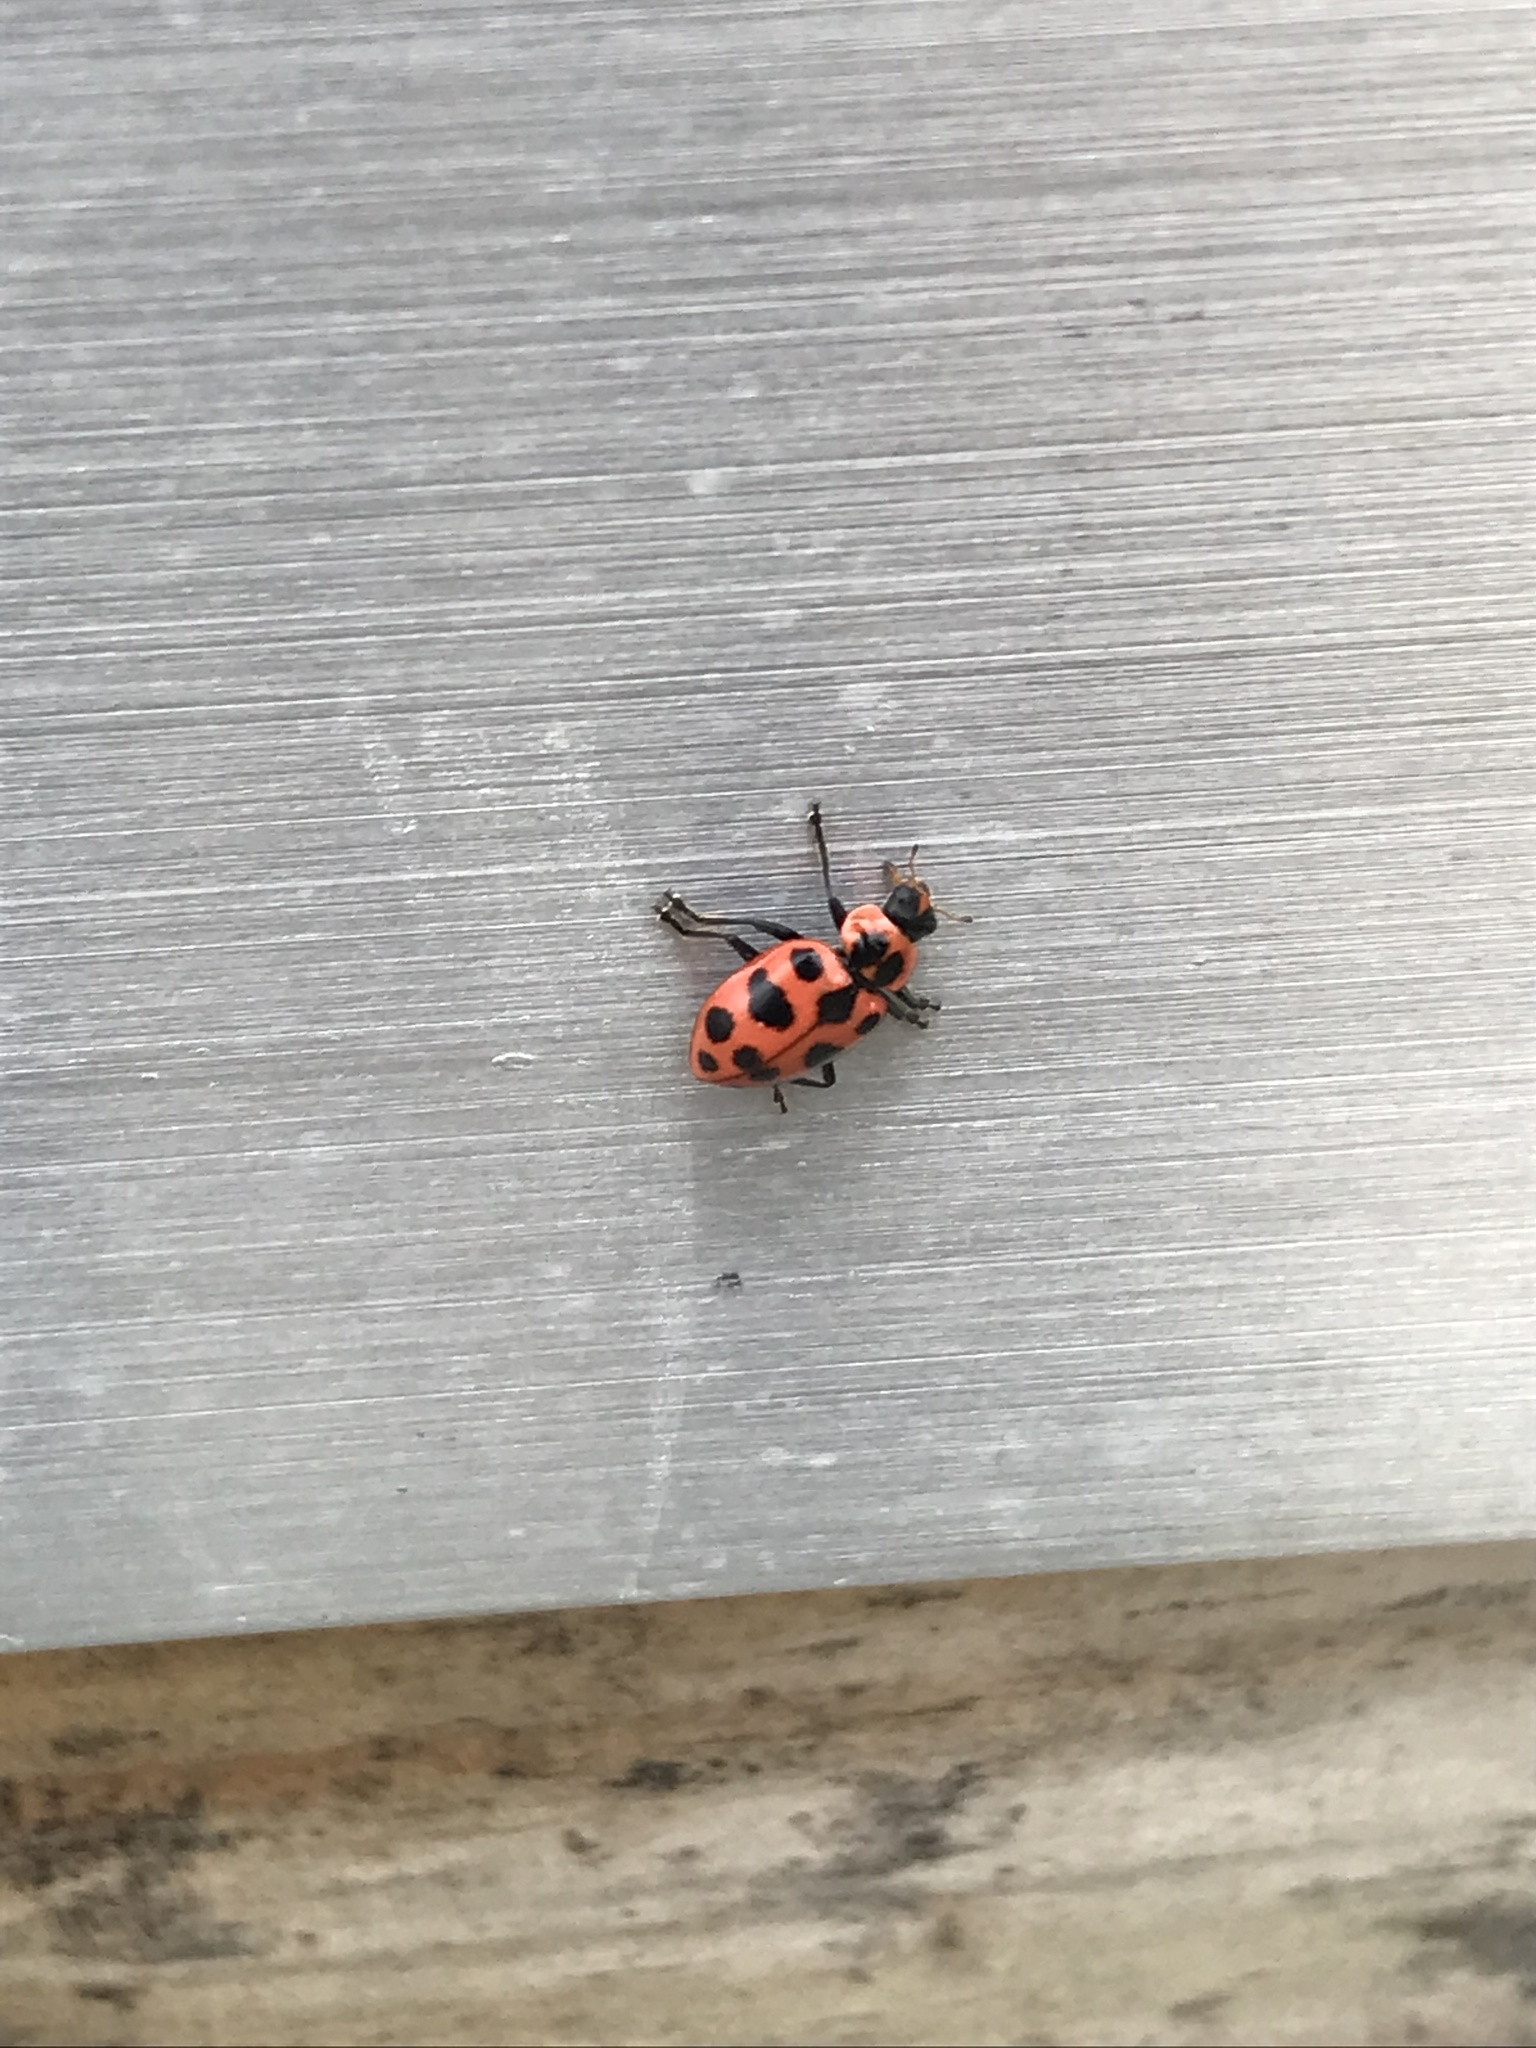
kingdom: Animalia
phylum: Arthropoda
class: Insecta
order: Coleoptera
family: Coccinellidae
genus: Coleomegilla
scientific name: Coleomegilla maculata
